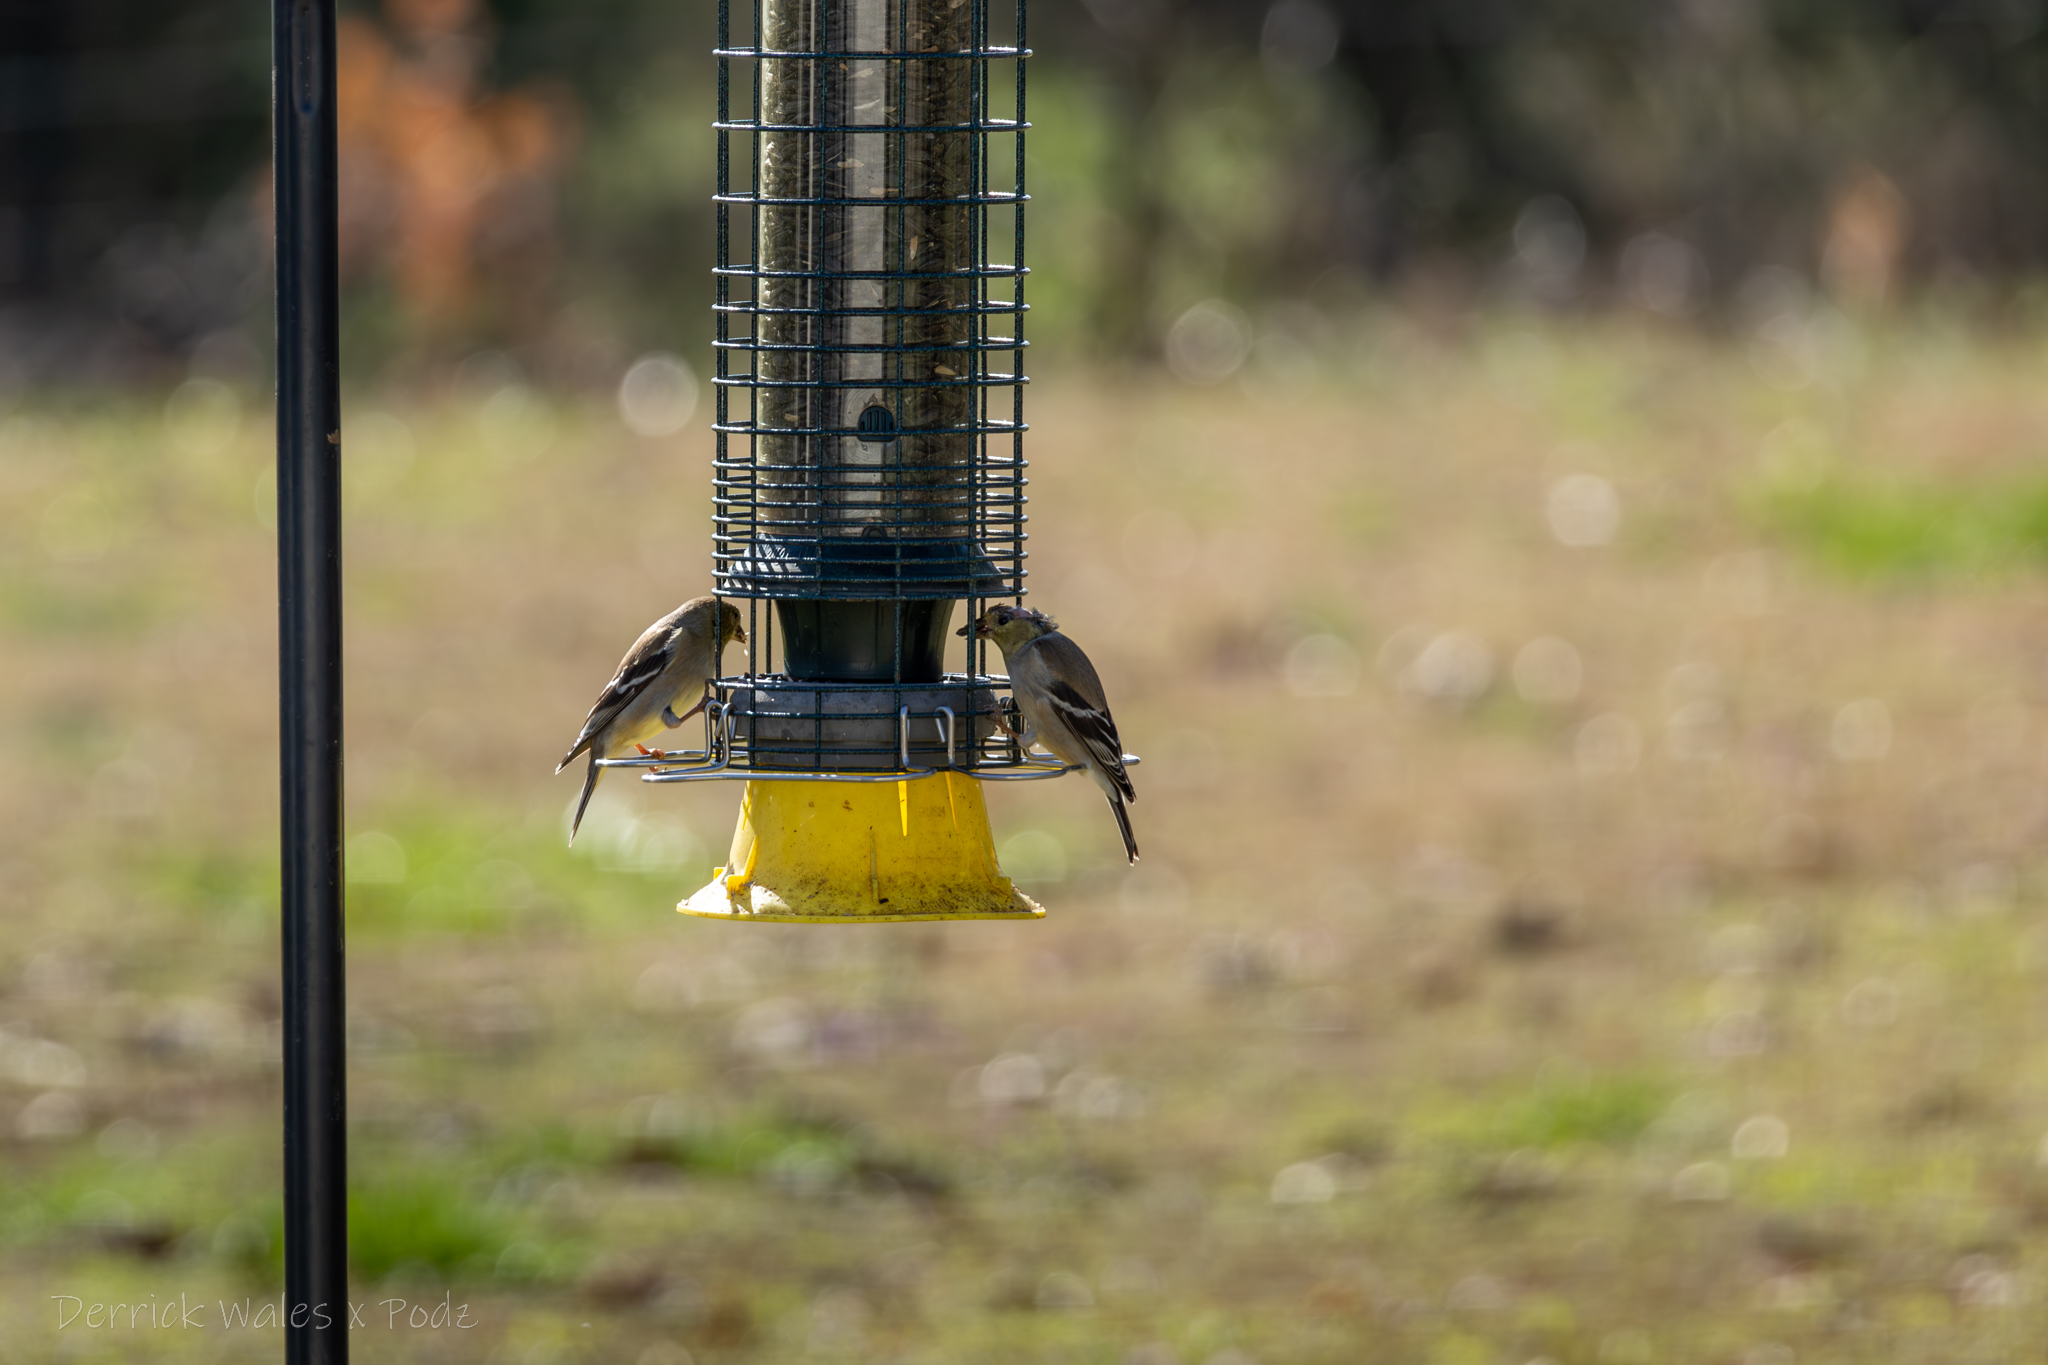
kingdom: Animalia
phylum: Chordata
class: Aves
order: Passeriformes
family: Fringillidae
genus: Spinus
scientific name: Spinus tristis
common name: American goldfinch
